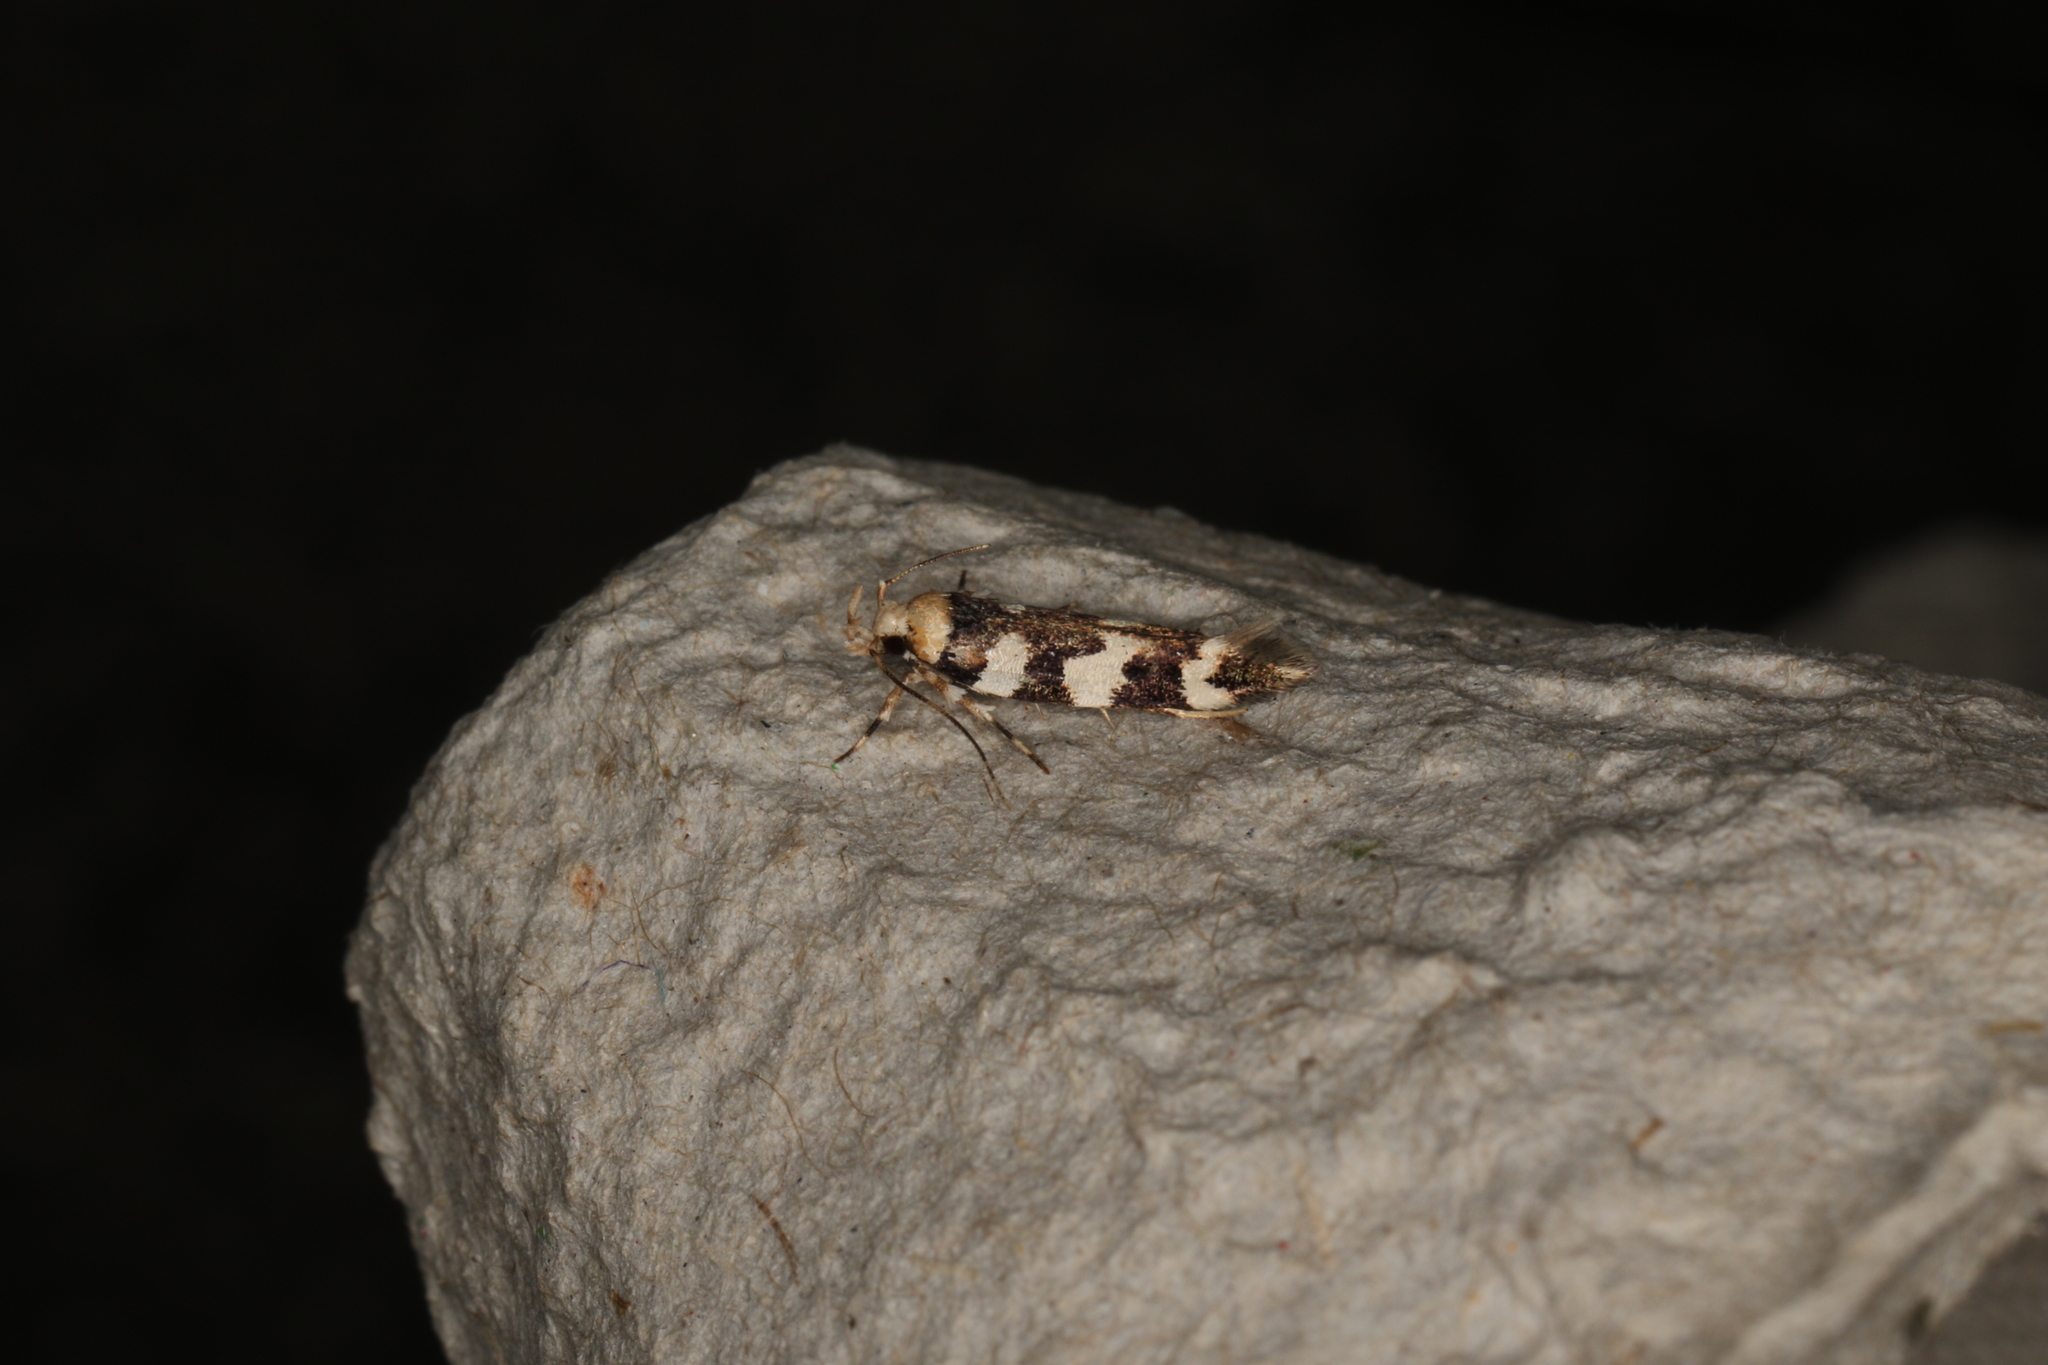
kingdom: Animalia
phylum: Arthropoda
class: Insecta
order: Lepidoptera
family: Cosmopterigidae
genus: Limnaecia
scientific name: Limnaecia camptosema
